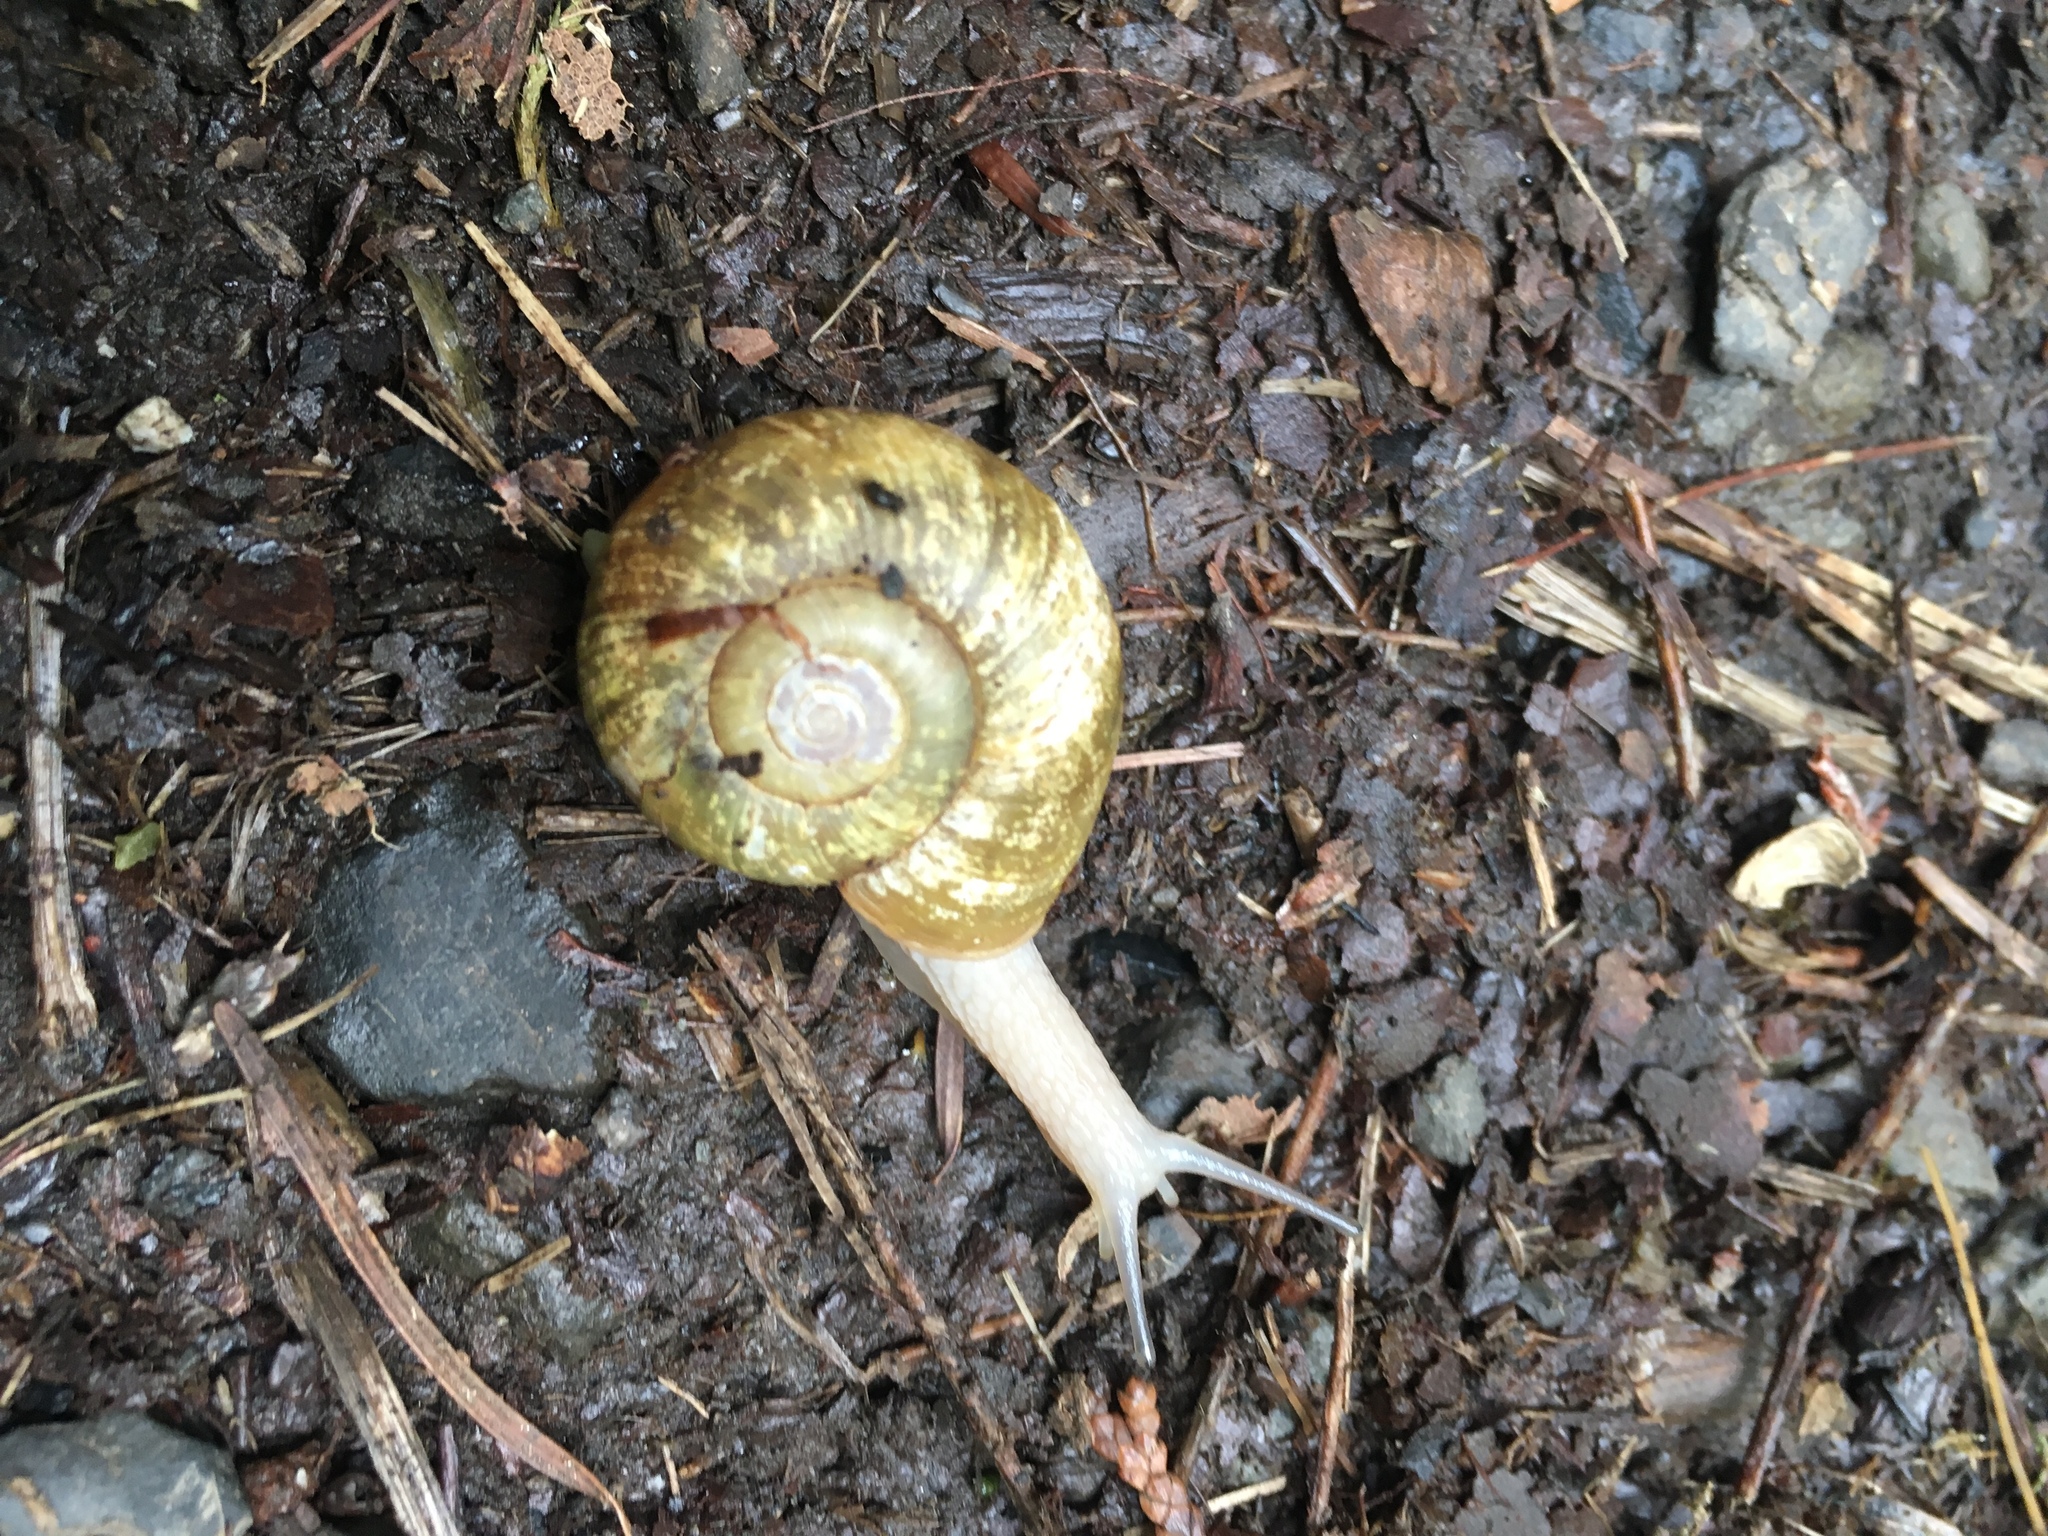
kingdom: Animalia
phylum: Mollusca
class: Gastropoda
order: Stylommatophora
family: Haplotrematidae
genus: Haplotrema
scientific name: Haplotrema vancouverense
